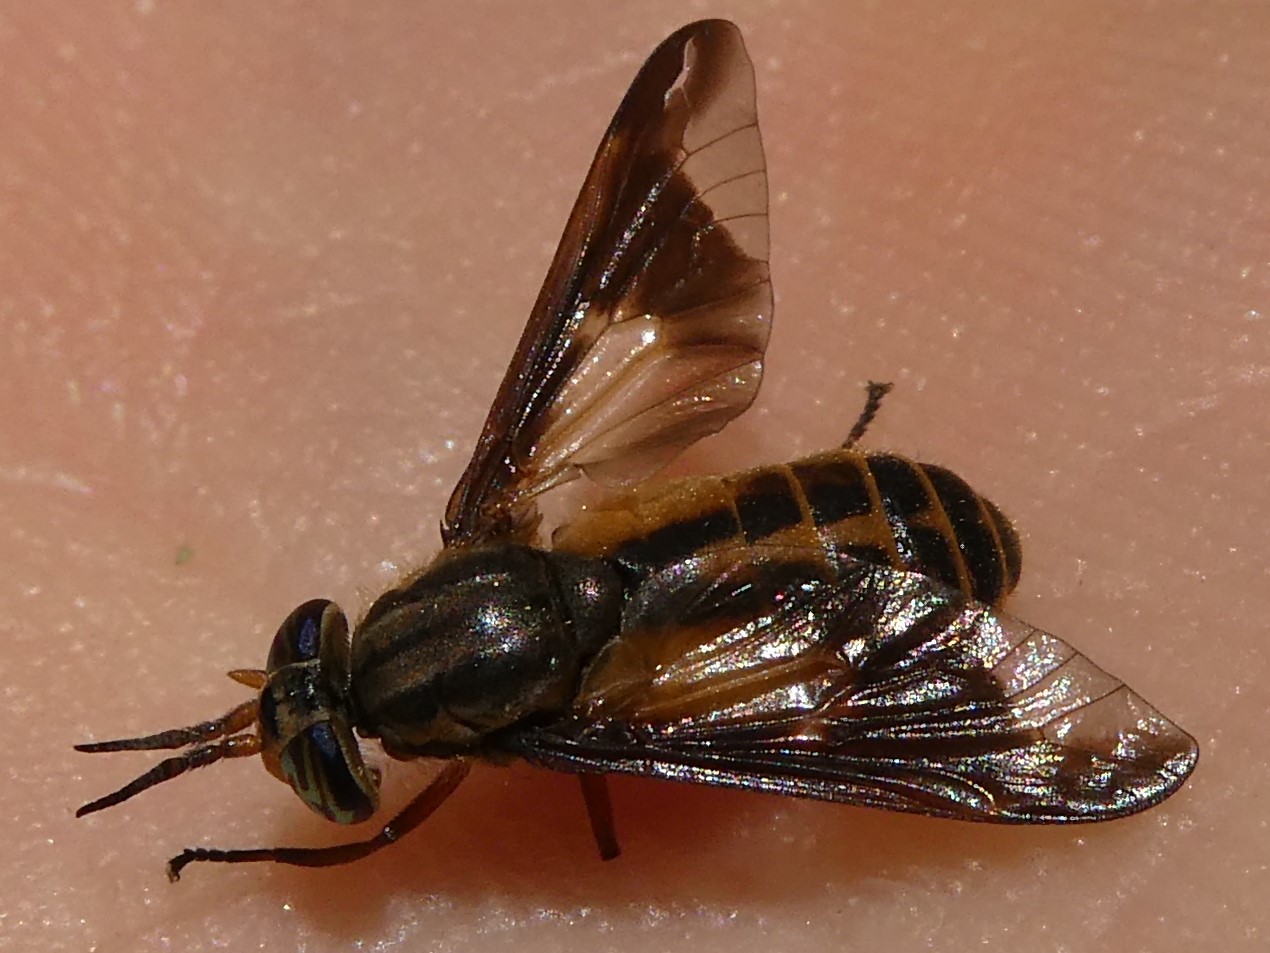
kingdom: Animalia
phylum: Arthropoda
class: Insecta
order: Diptera
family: Tabanidae
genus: Chrysops
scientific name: Chrysops indus
